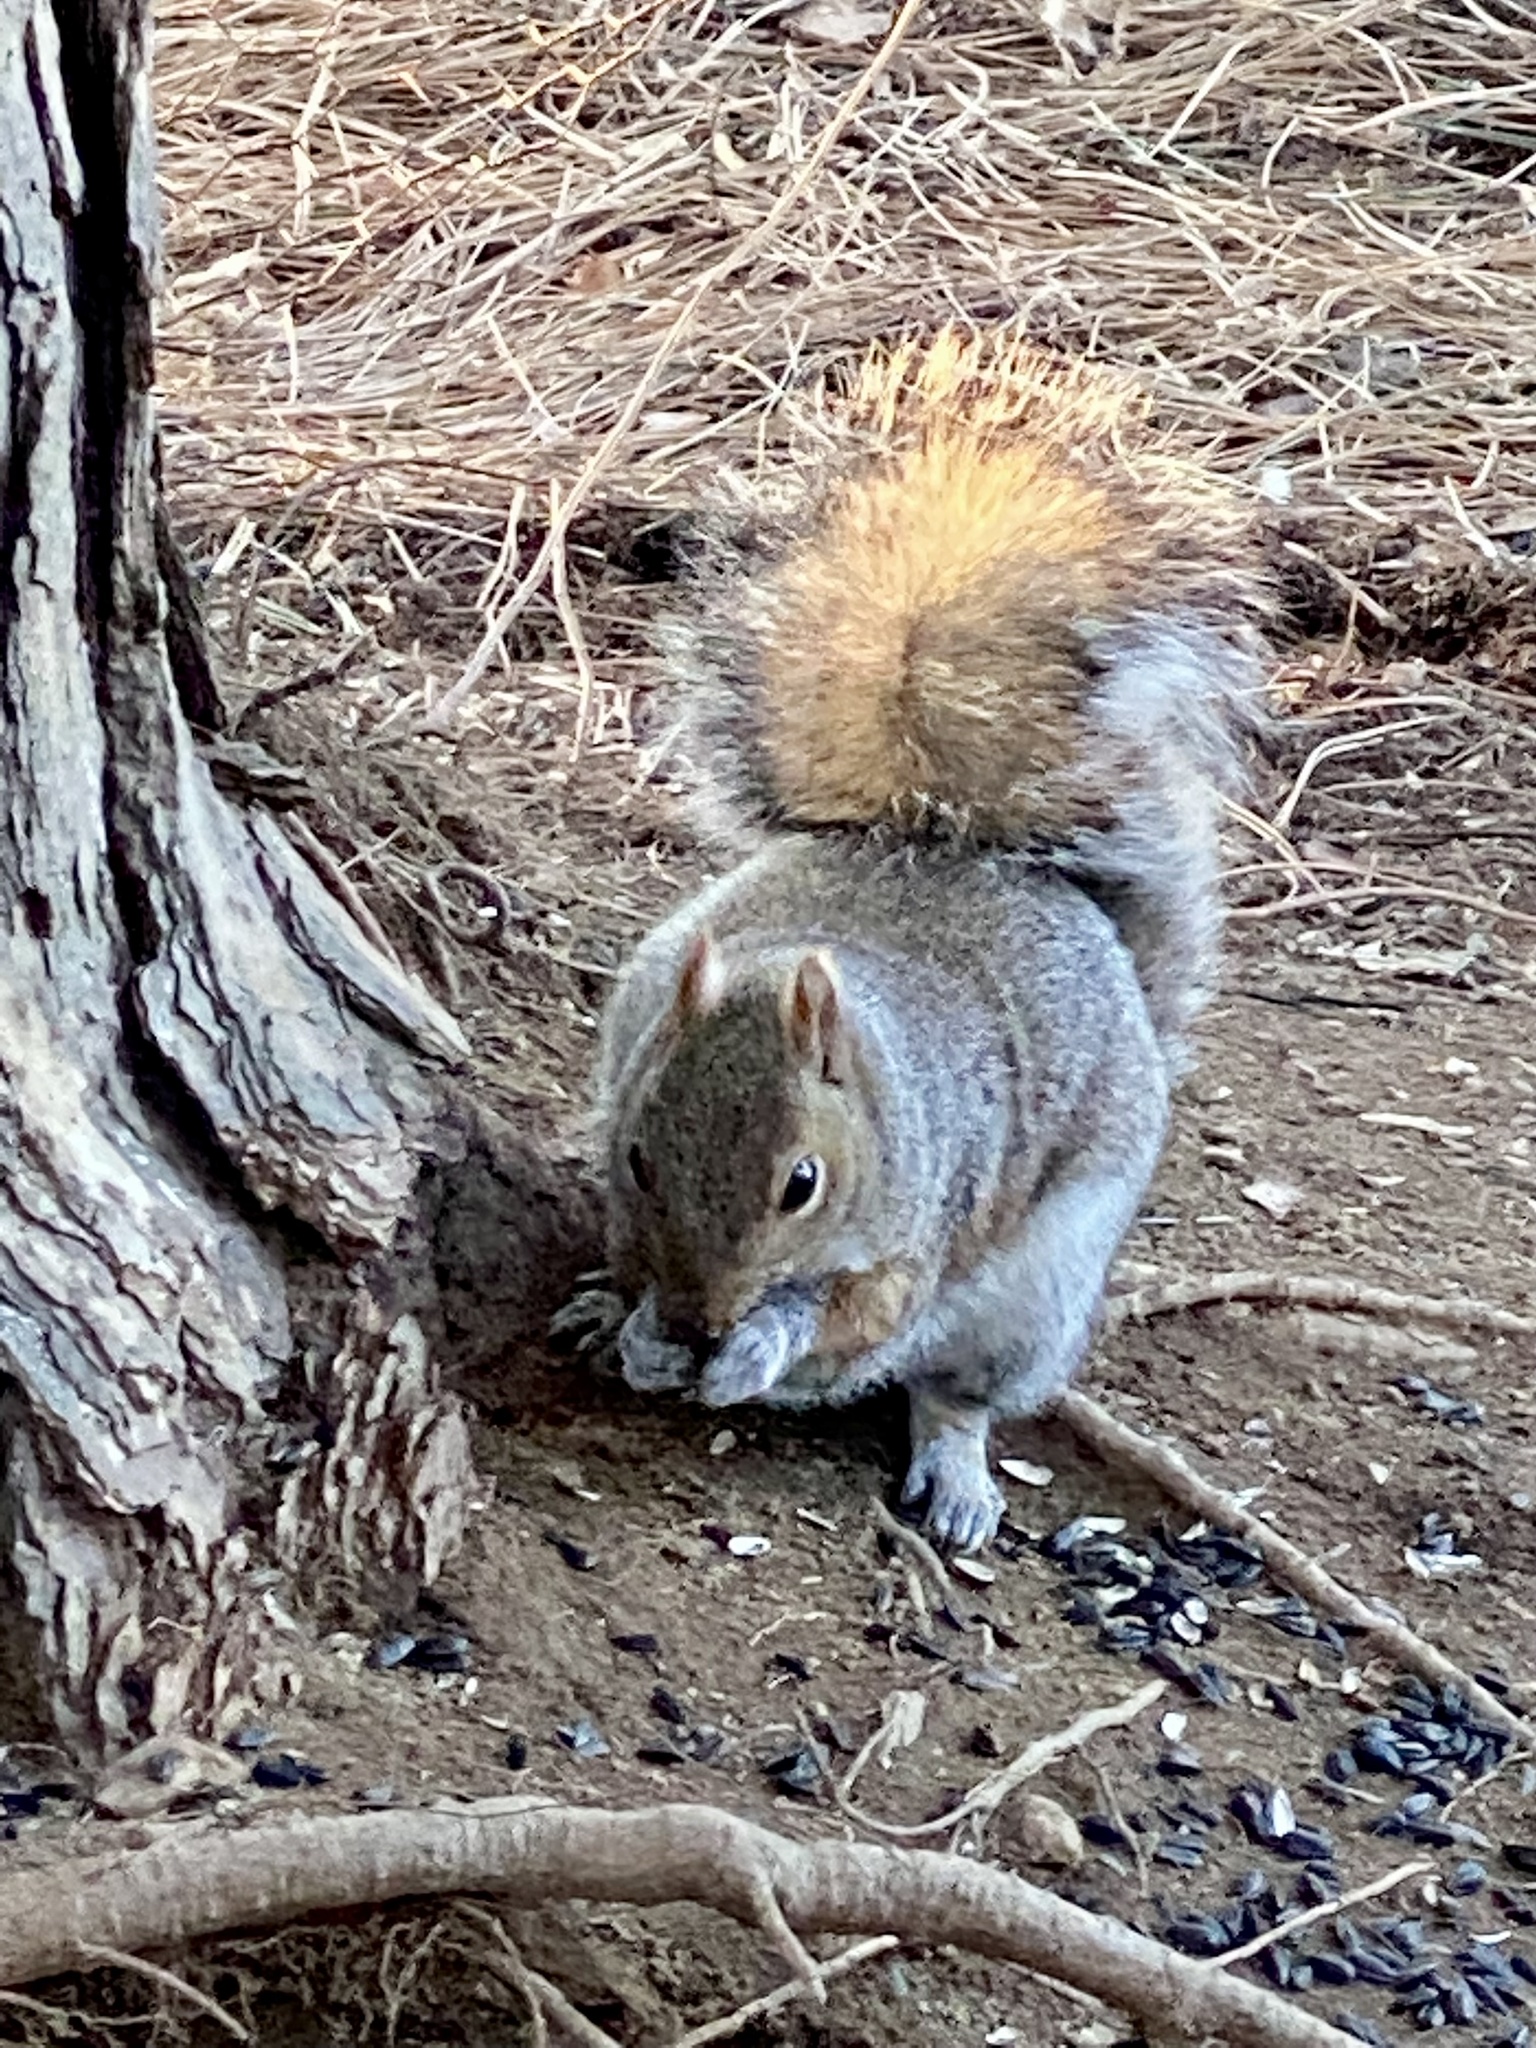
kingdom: Animalia
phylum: Chordata
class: Mammalia
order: Rodentia
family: Sciuridae
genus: Sciurus
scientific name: Sciurus carolinensis
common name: Eastern gray squirrel
